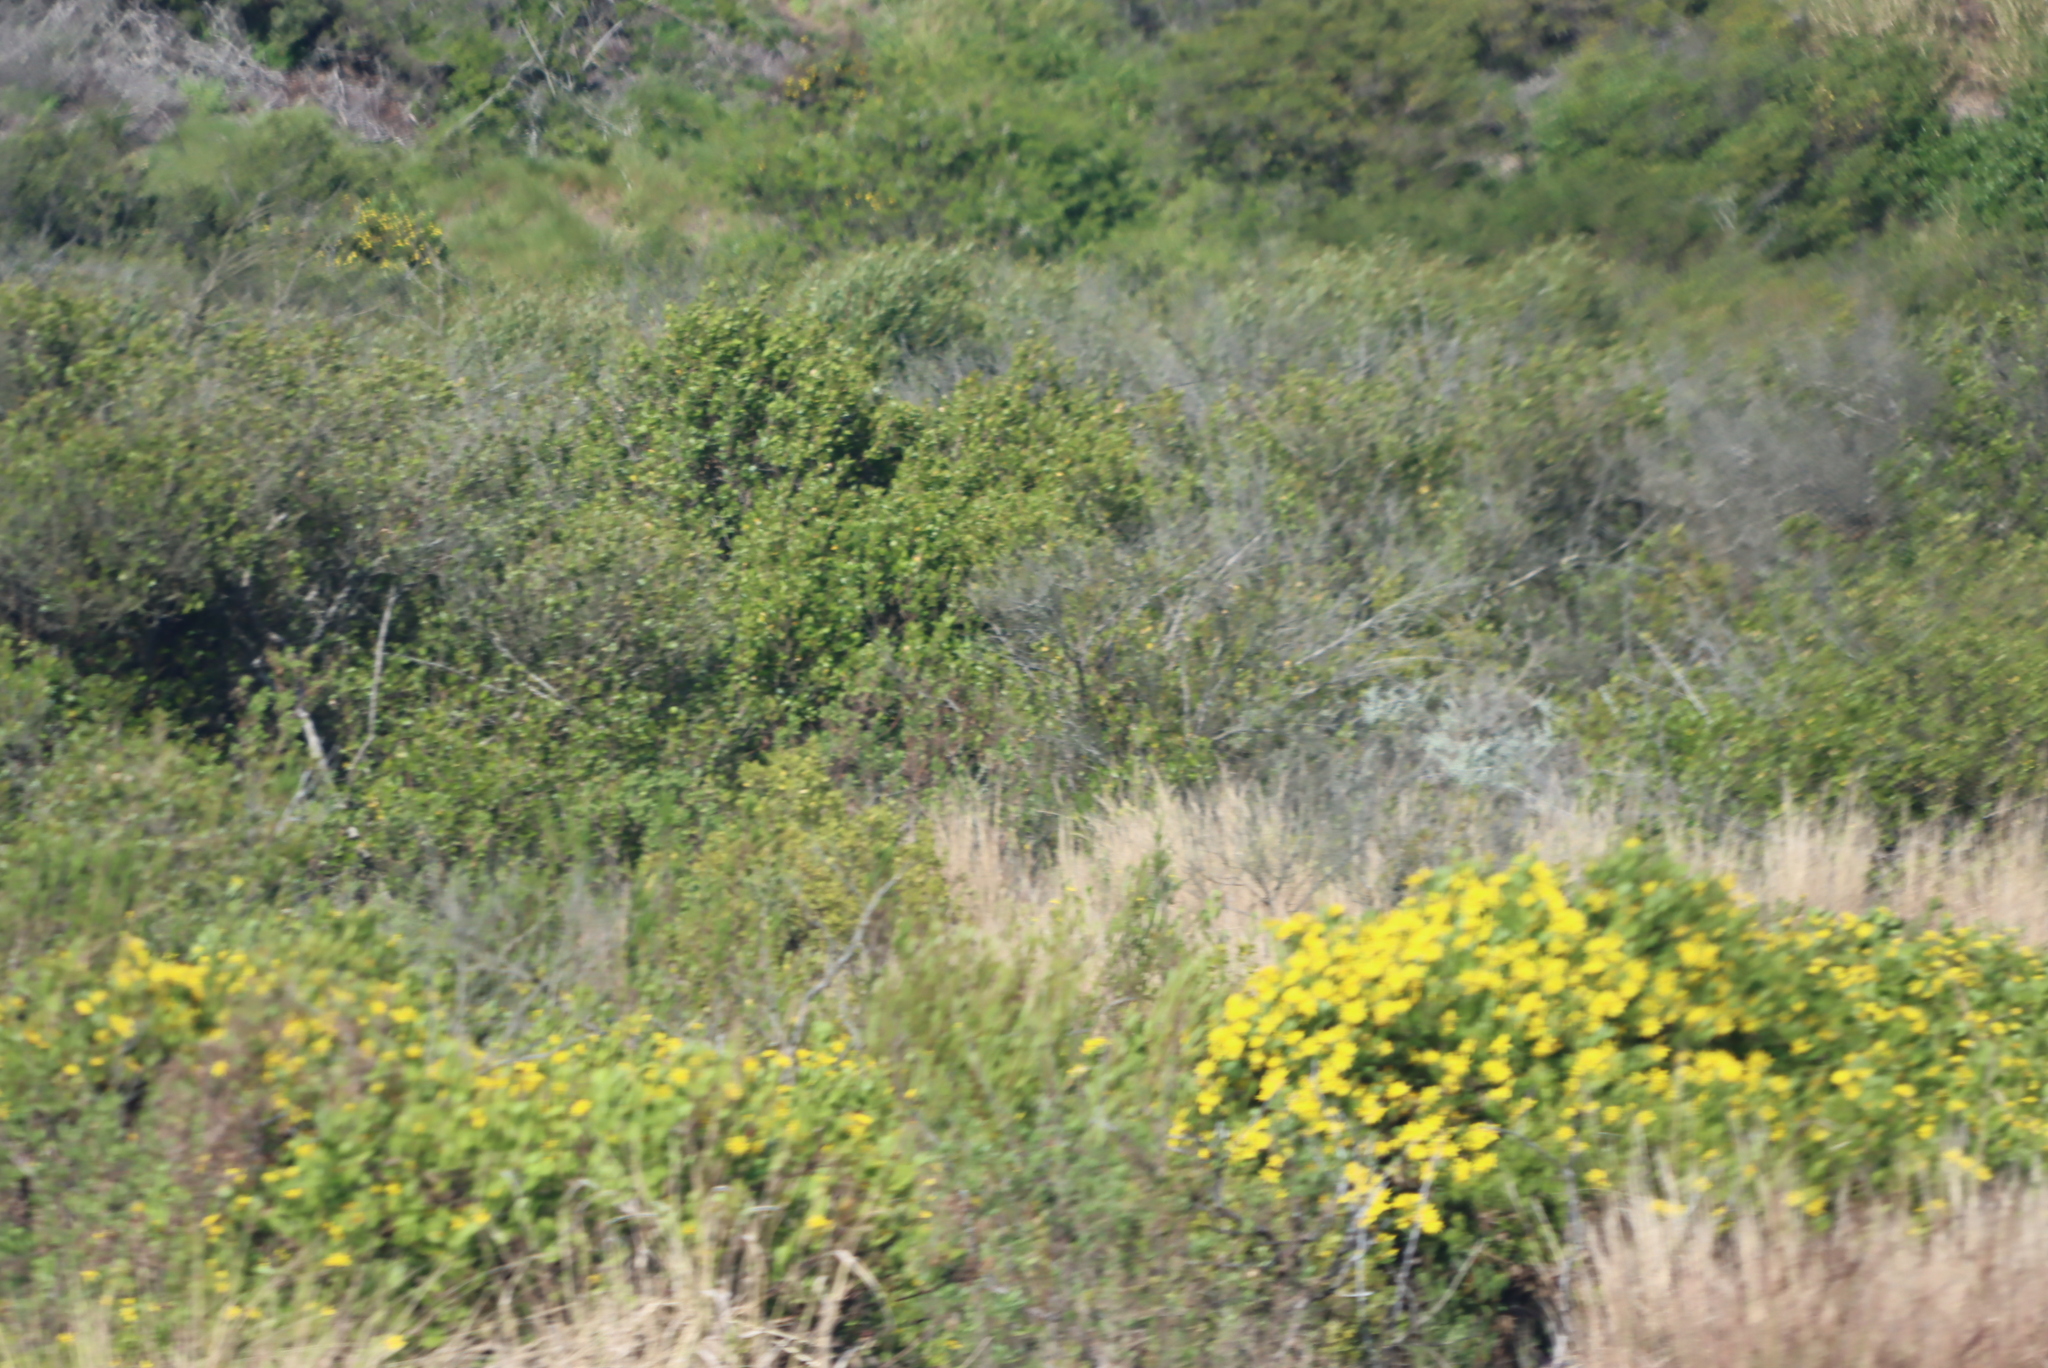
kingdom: Plantae
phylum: Tracheophyta
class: Magnoliopsida
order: Asterales
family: Asteraceae
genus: Osteospermum
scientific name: Osteospermum moniliferum
